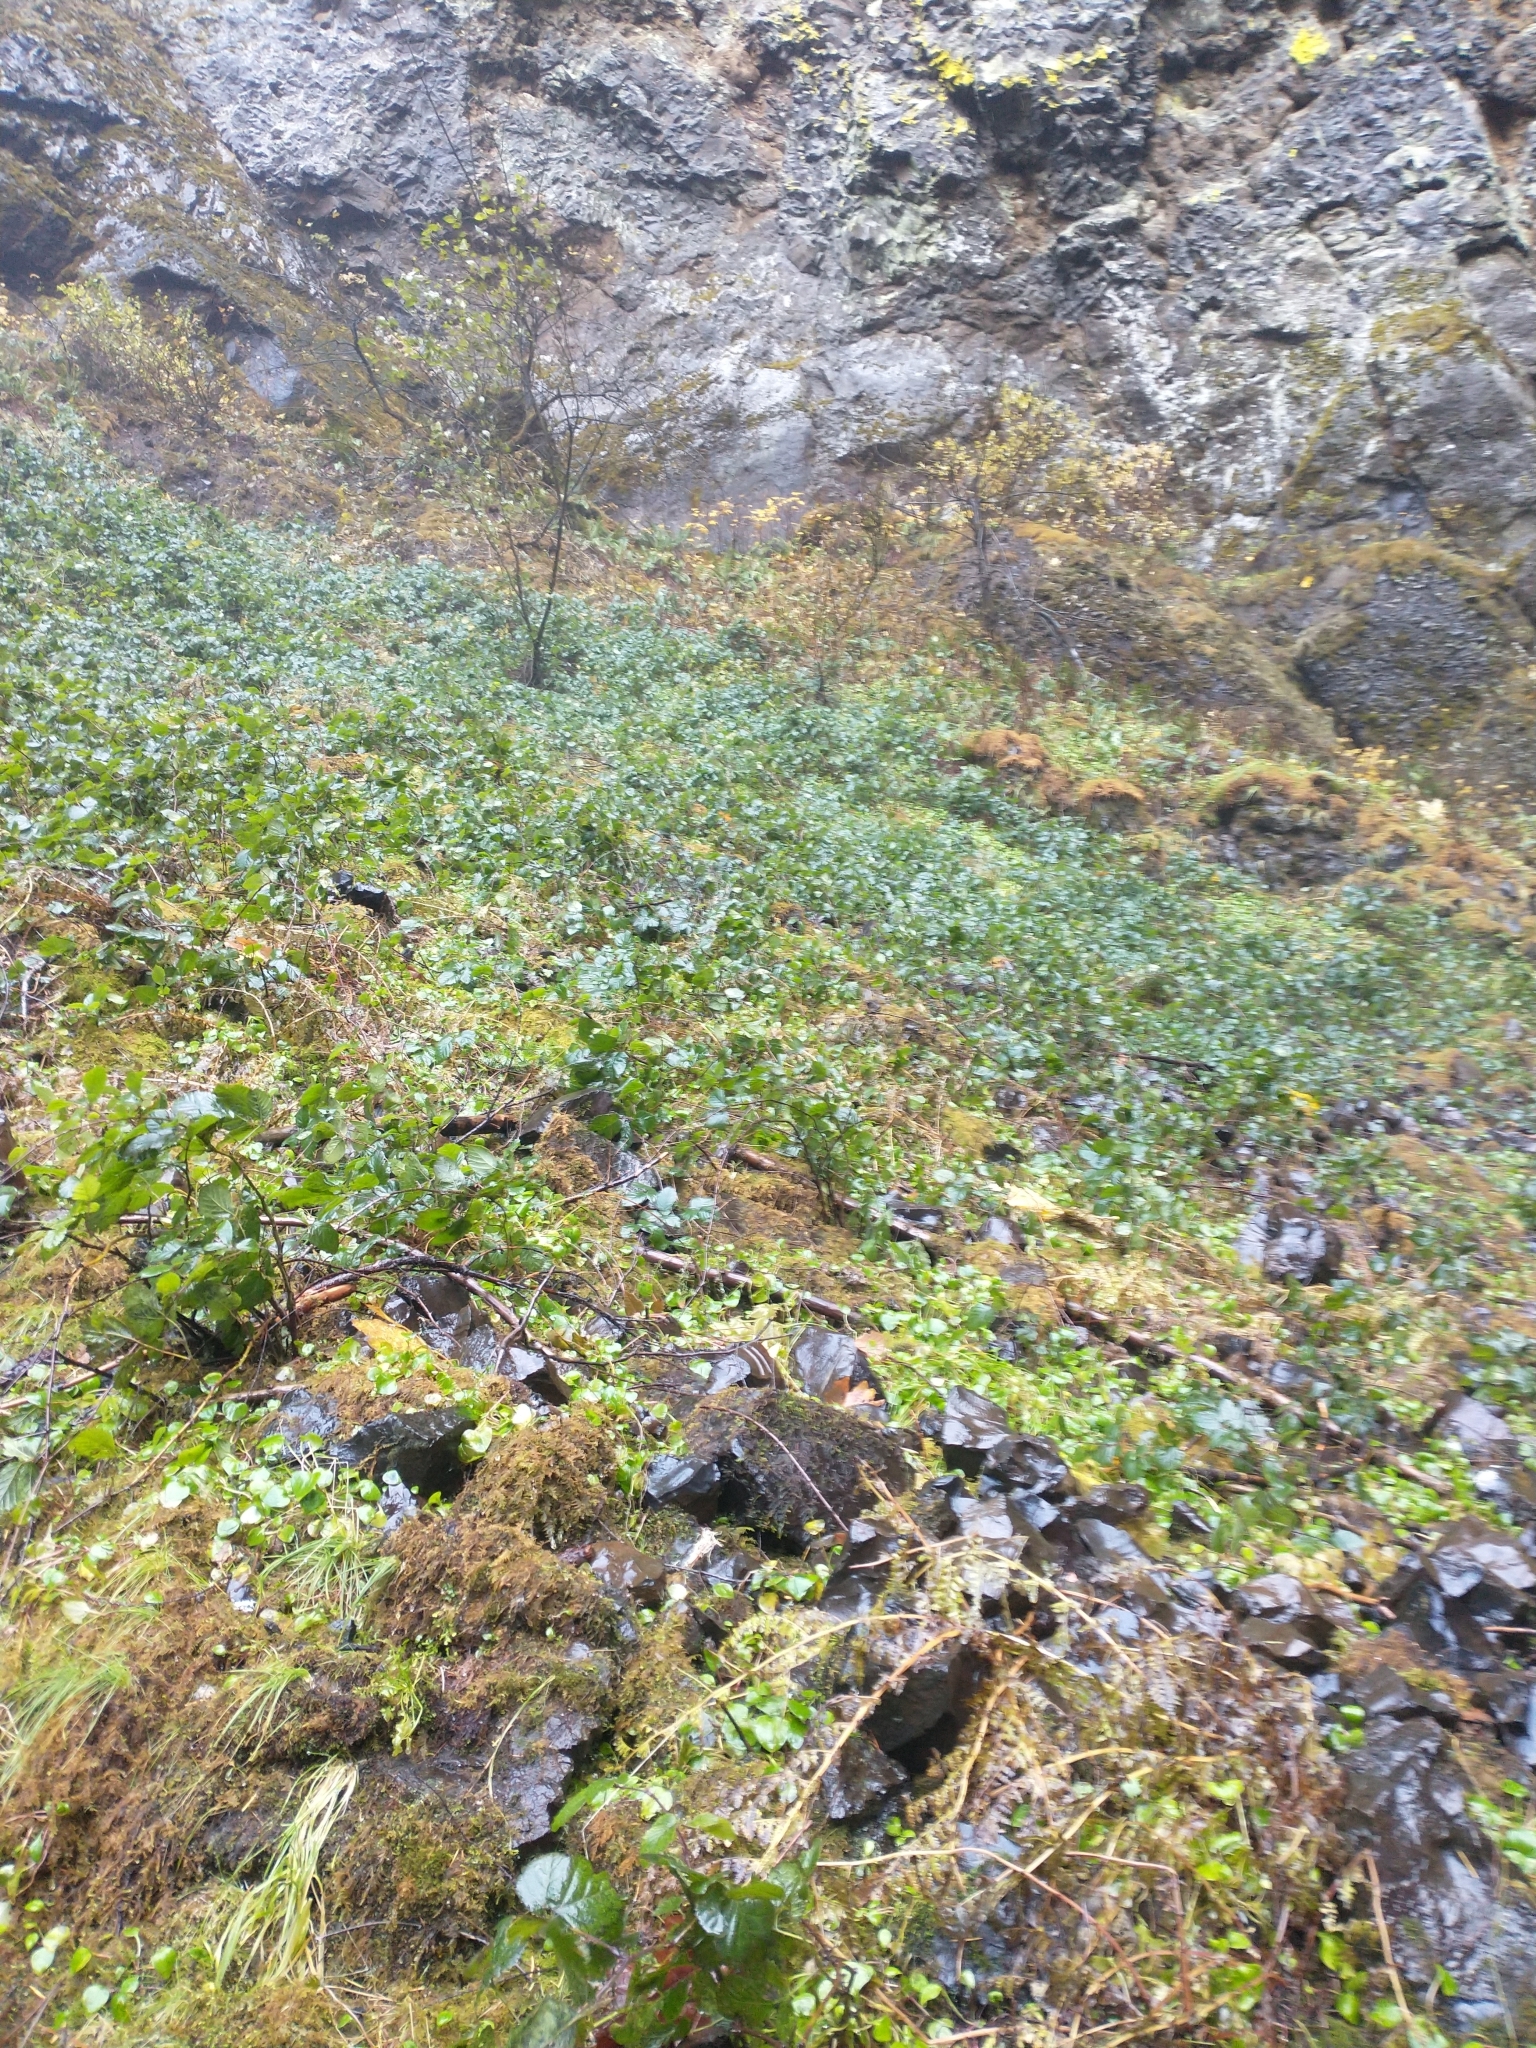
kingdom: Plantae
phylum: Tracheophyta
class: Magnoliopsida
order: Rosales
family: Rosaceae
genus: Rubus
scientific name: Rubus ursinus
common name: Pacific blackberry
